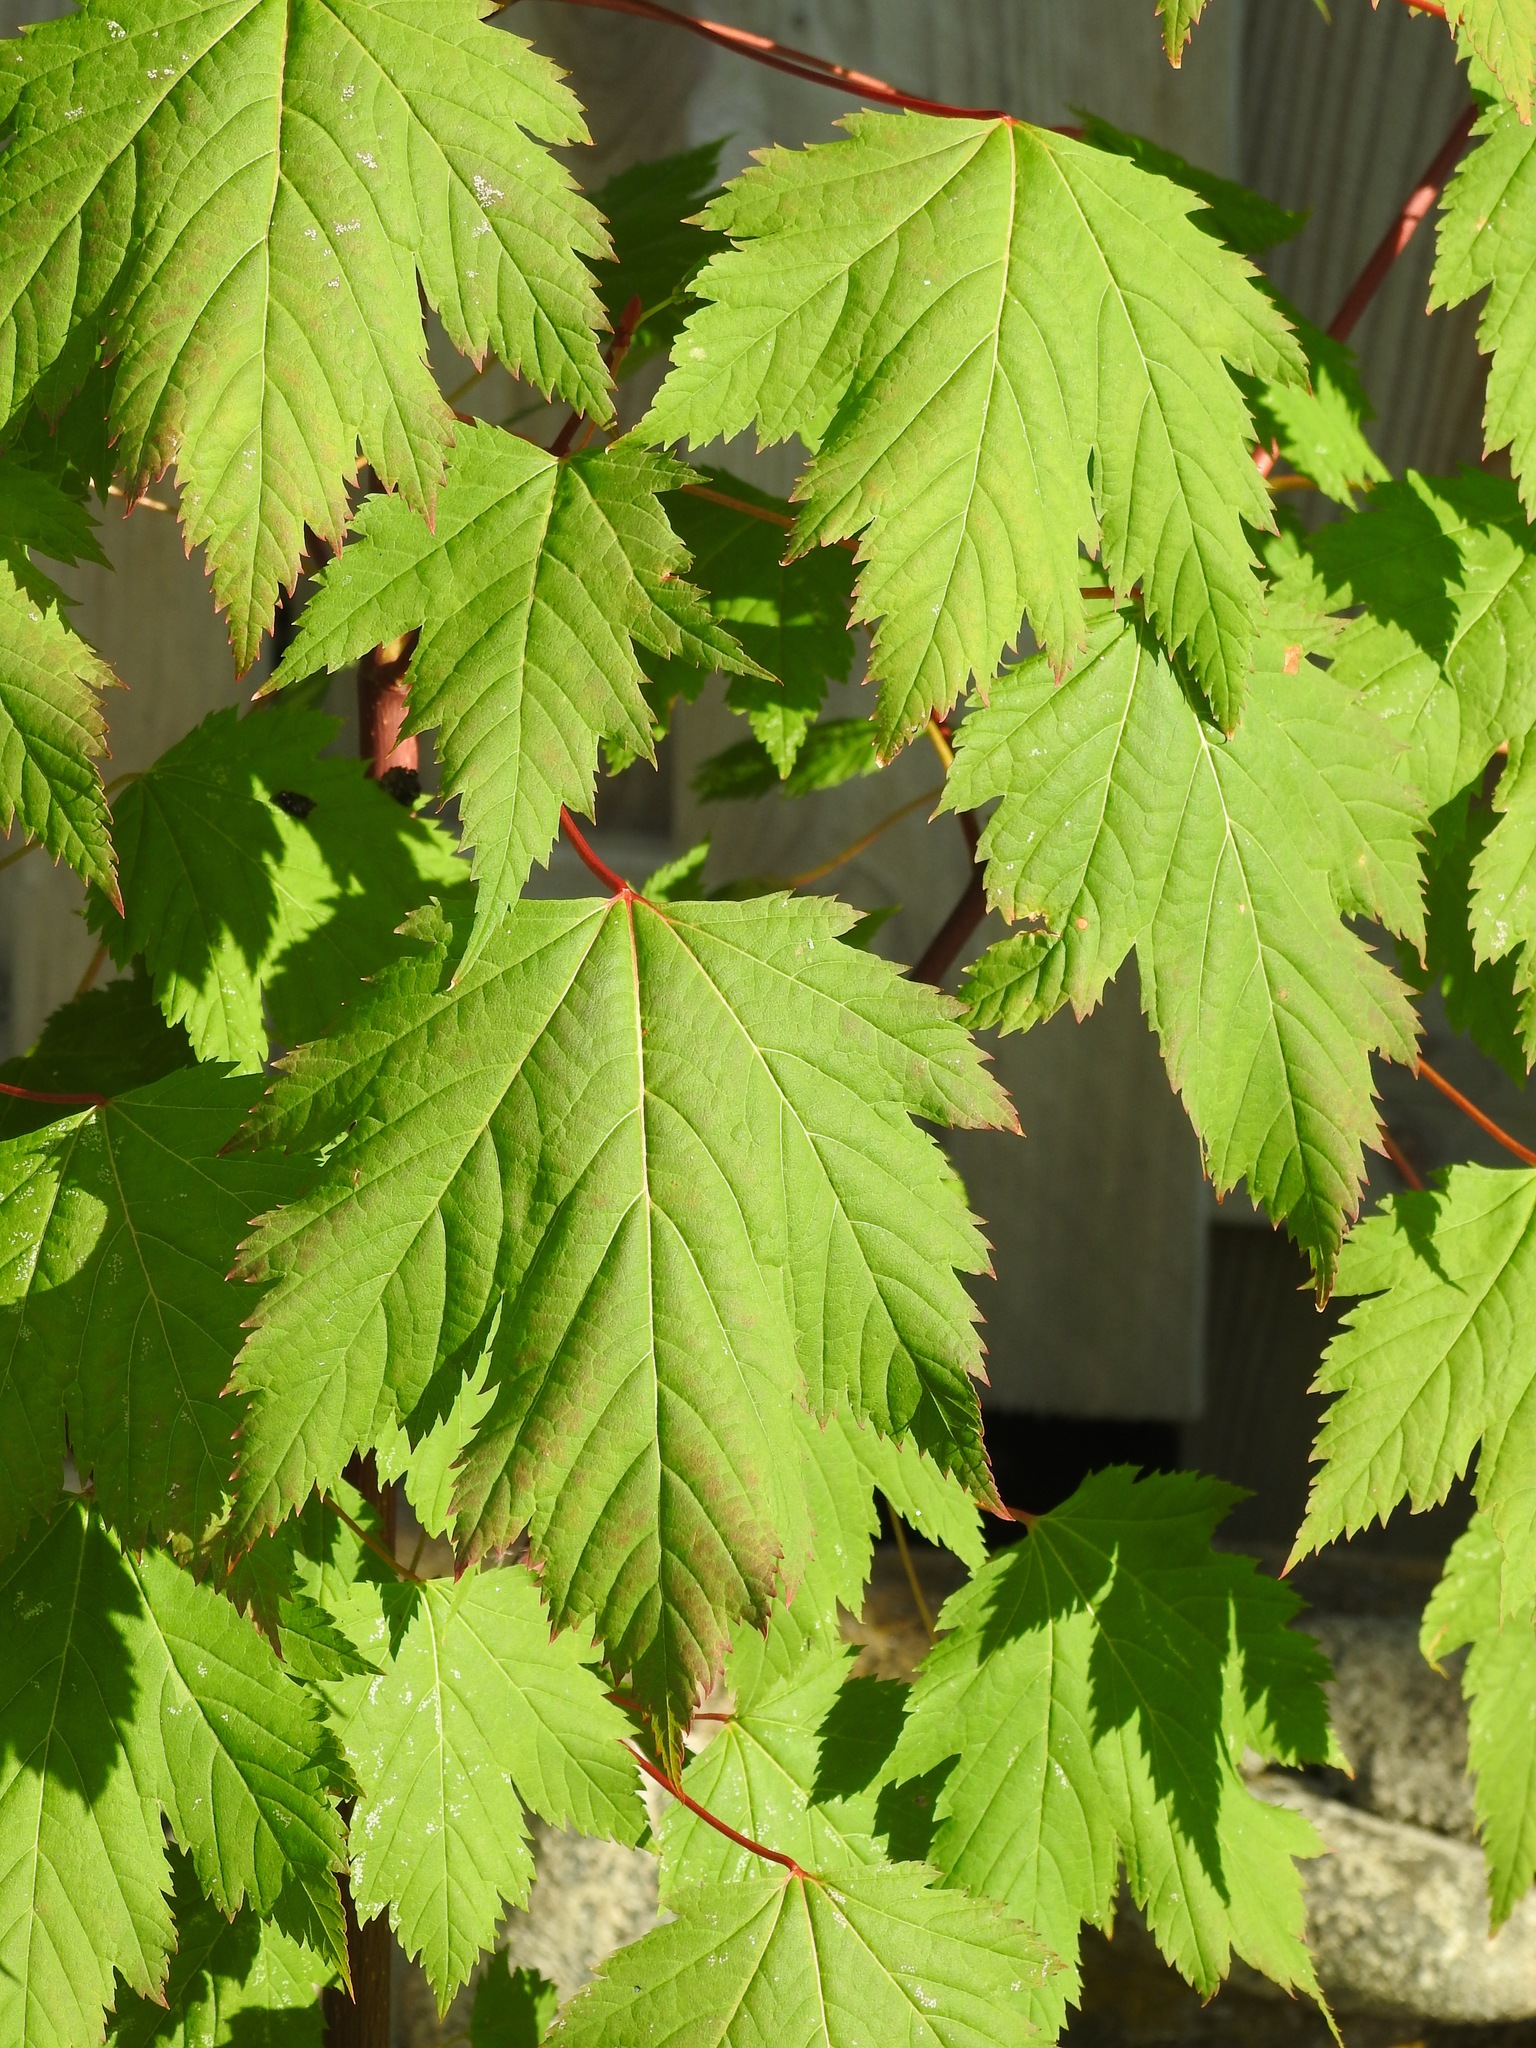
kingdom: Plantae
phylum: Tracheophyta
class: Magnoliopsida
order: Sapindales
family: Sapindaceae
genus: Acer
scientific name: Acer glabrum
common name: Rocky mountain maple
